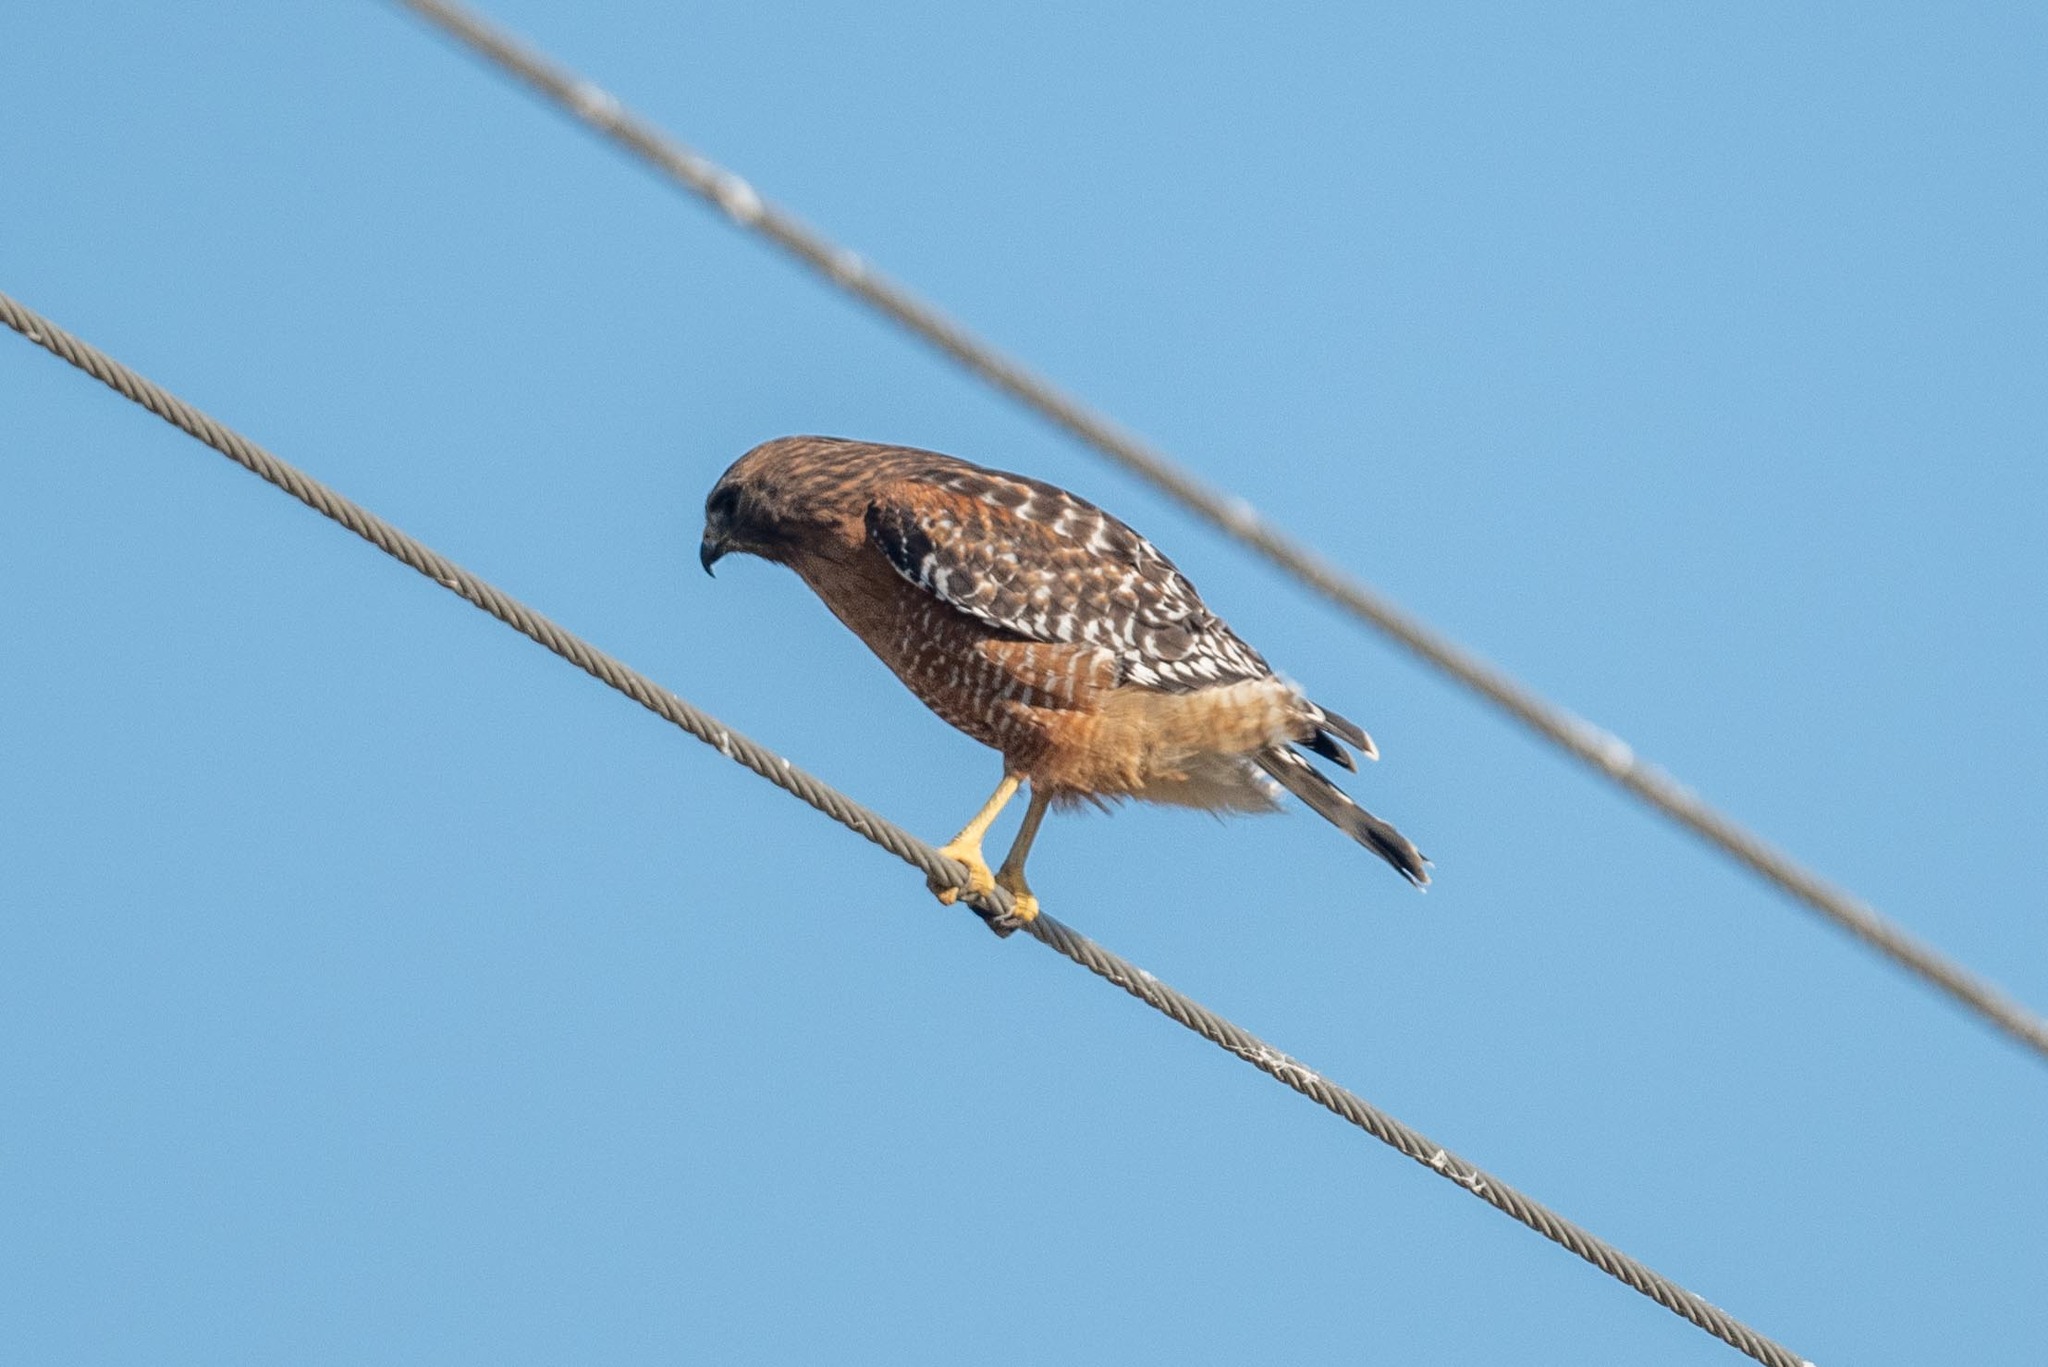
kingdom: Animalia
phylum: Chordata
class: Aves
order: Accipitriformes
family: Accipitridae
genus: Buteo
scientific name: Buteo lineatus
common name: Red-shouldered hawk
